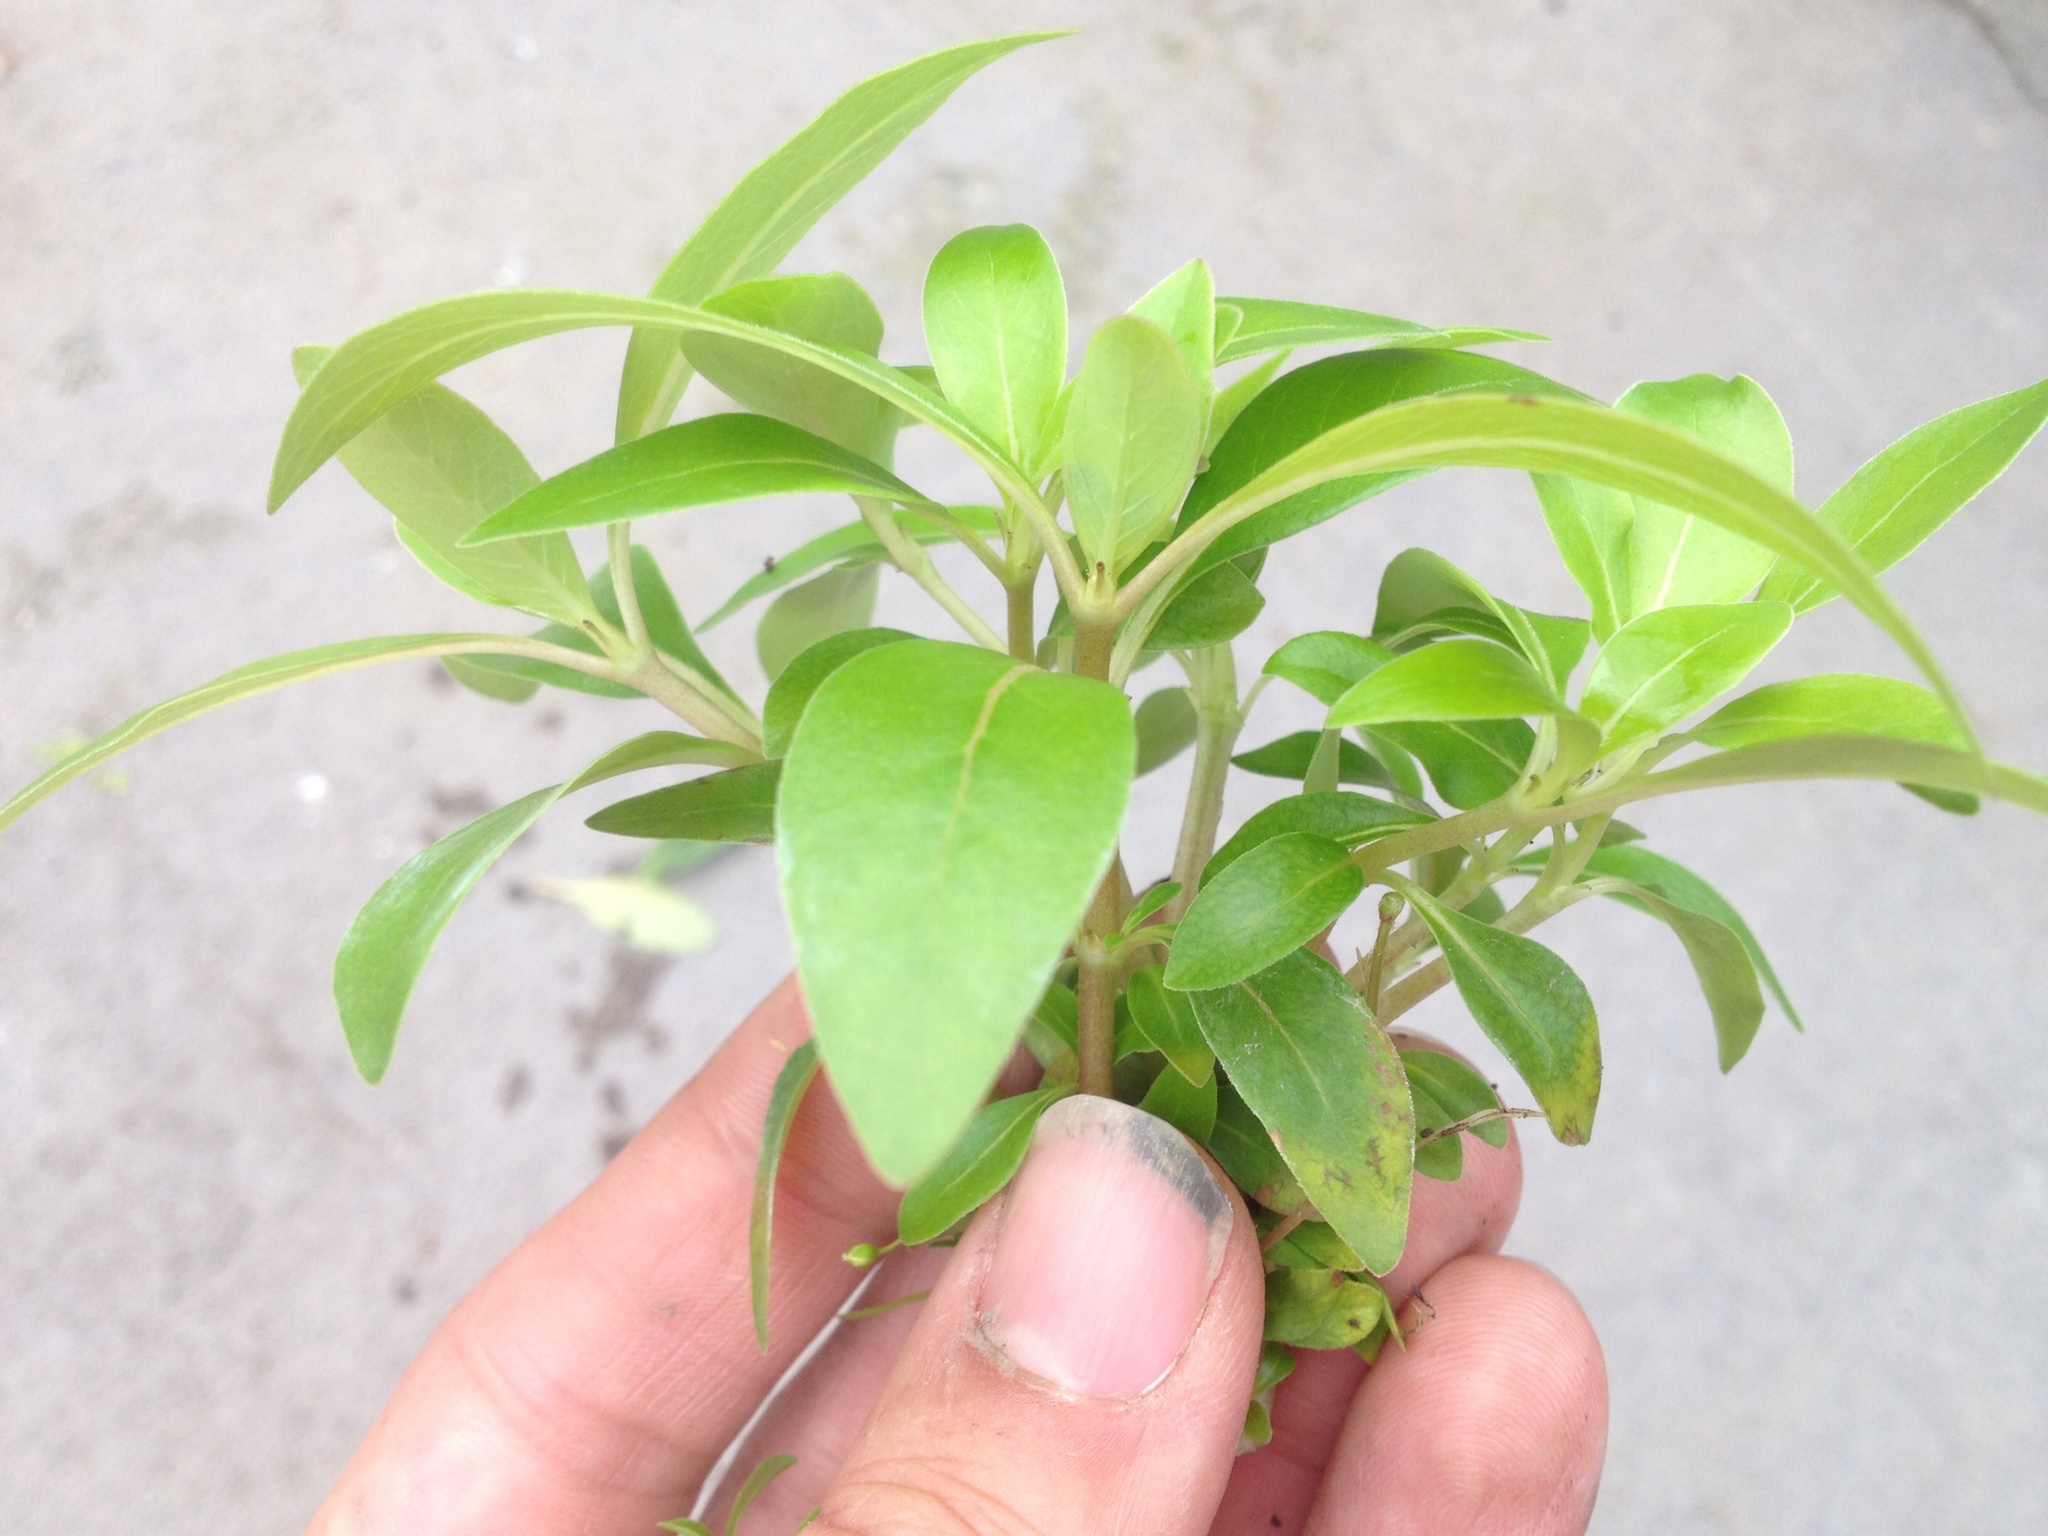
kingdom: Plantae
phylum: Tracheophyta
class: Magnoliopsida
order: Gentianales
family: Rubiaceae
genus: Coprosma
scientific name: Coprosma robusta
